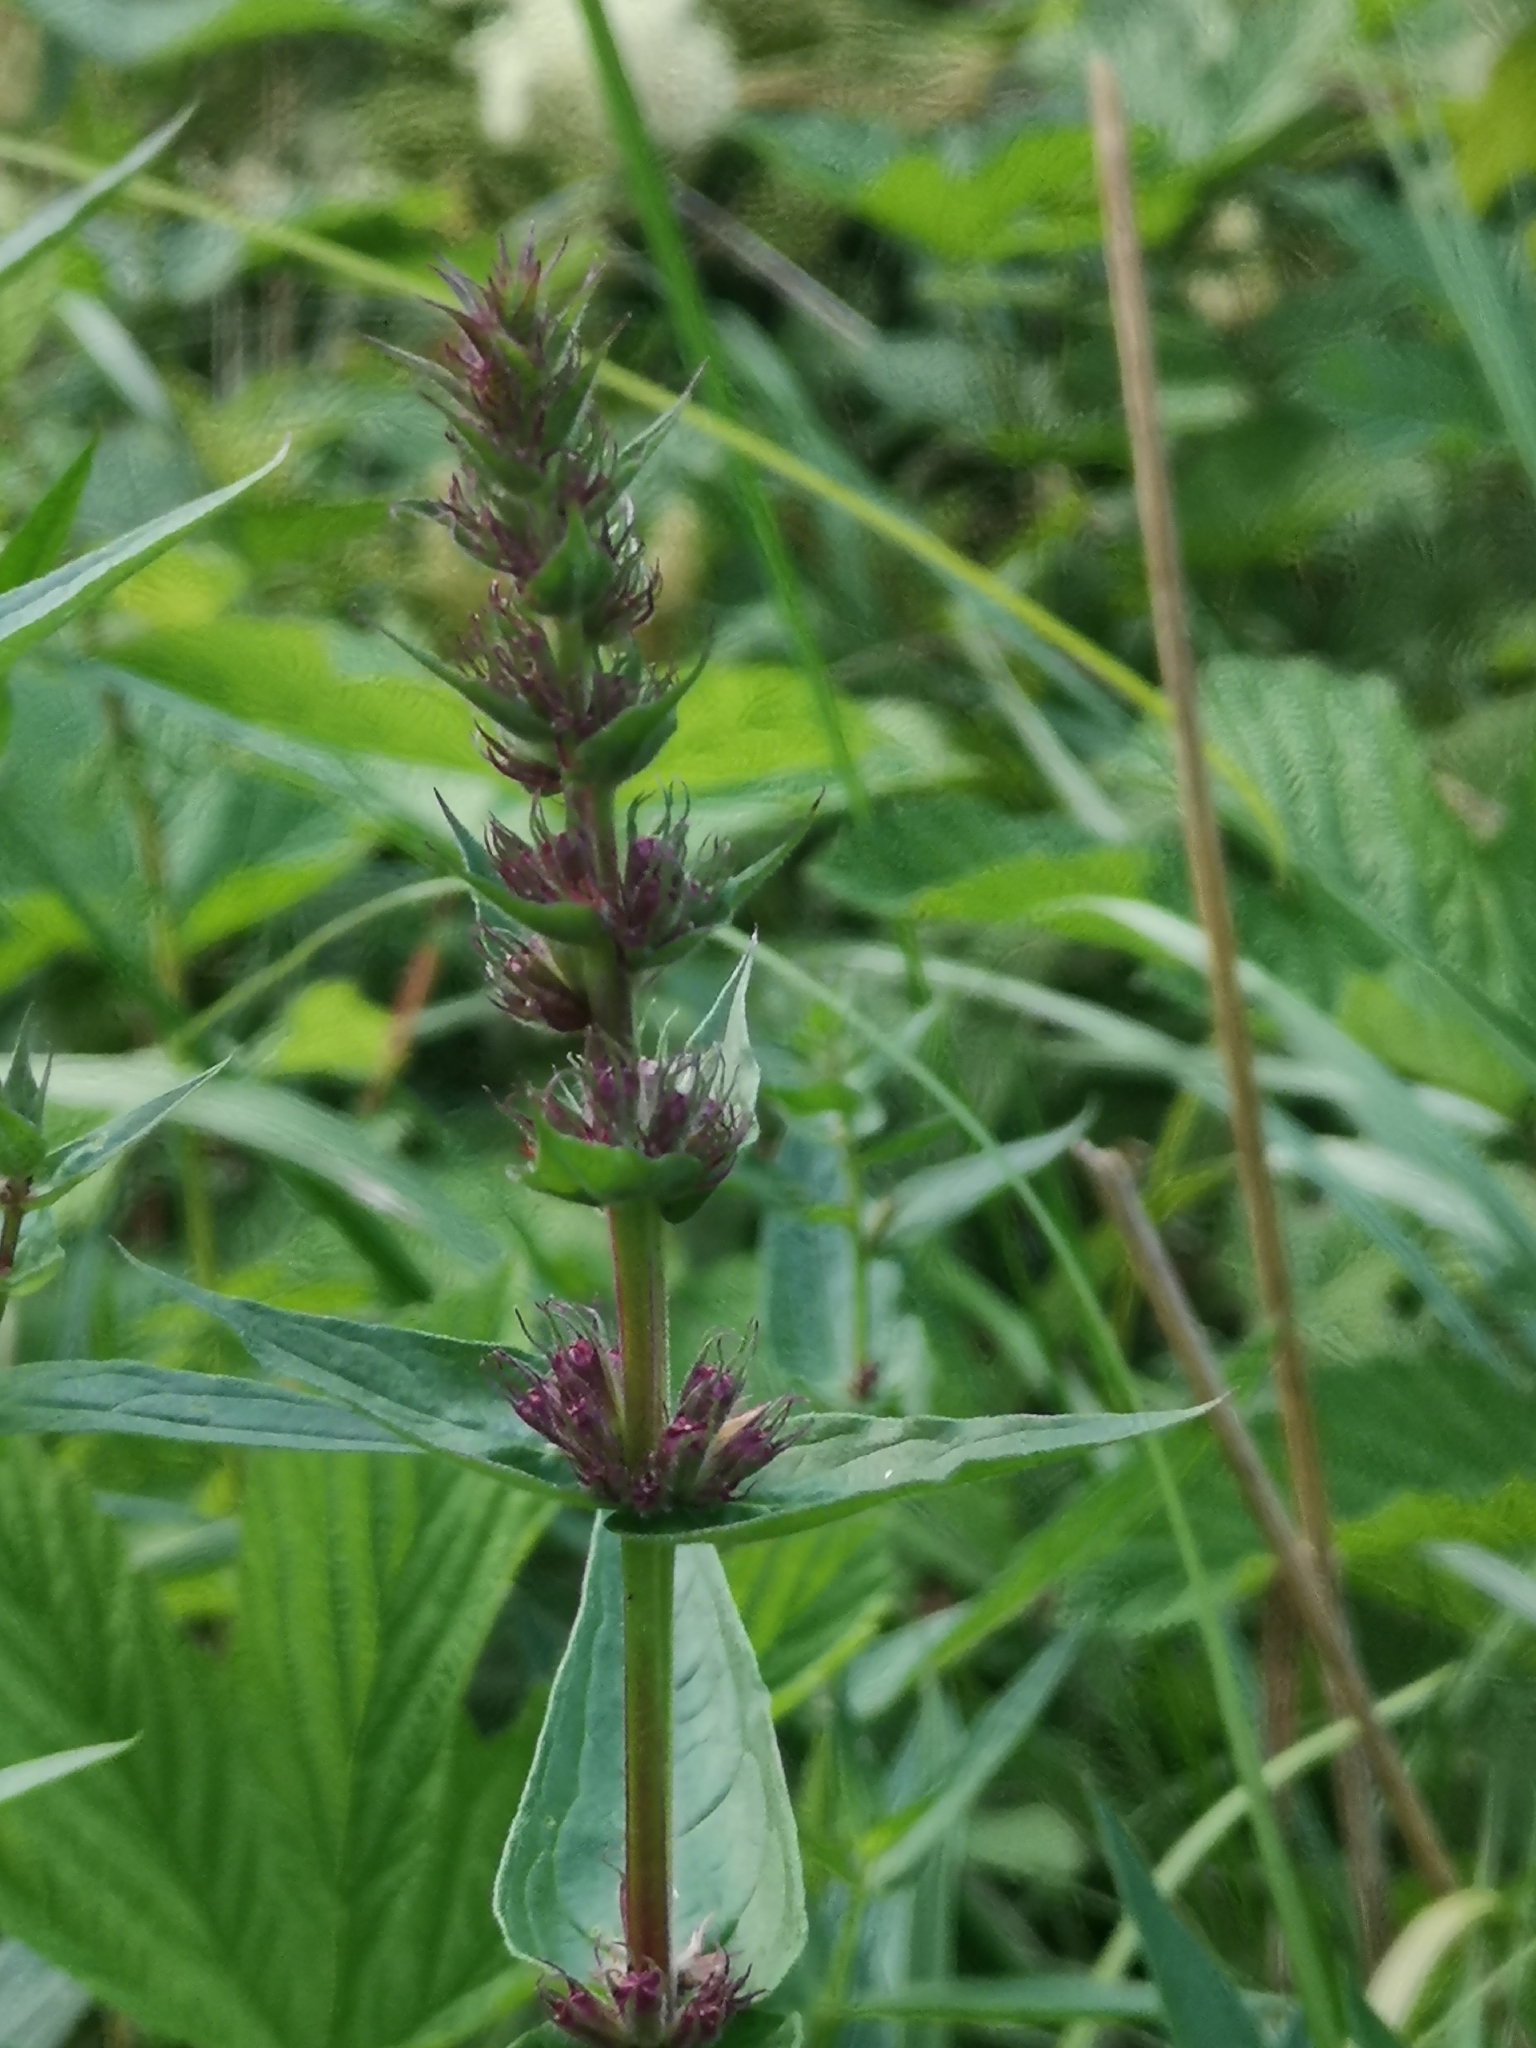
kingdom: Plantae
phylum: Tracheophyta
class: Magnoliopsida
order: Myrtales
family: Lythraceae
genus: Lythrum
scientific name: Lythrum salicaria
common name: Purple loosestrife
